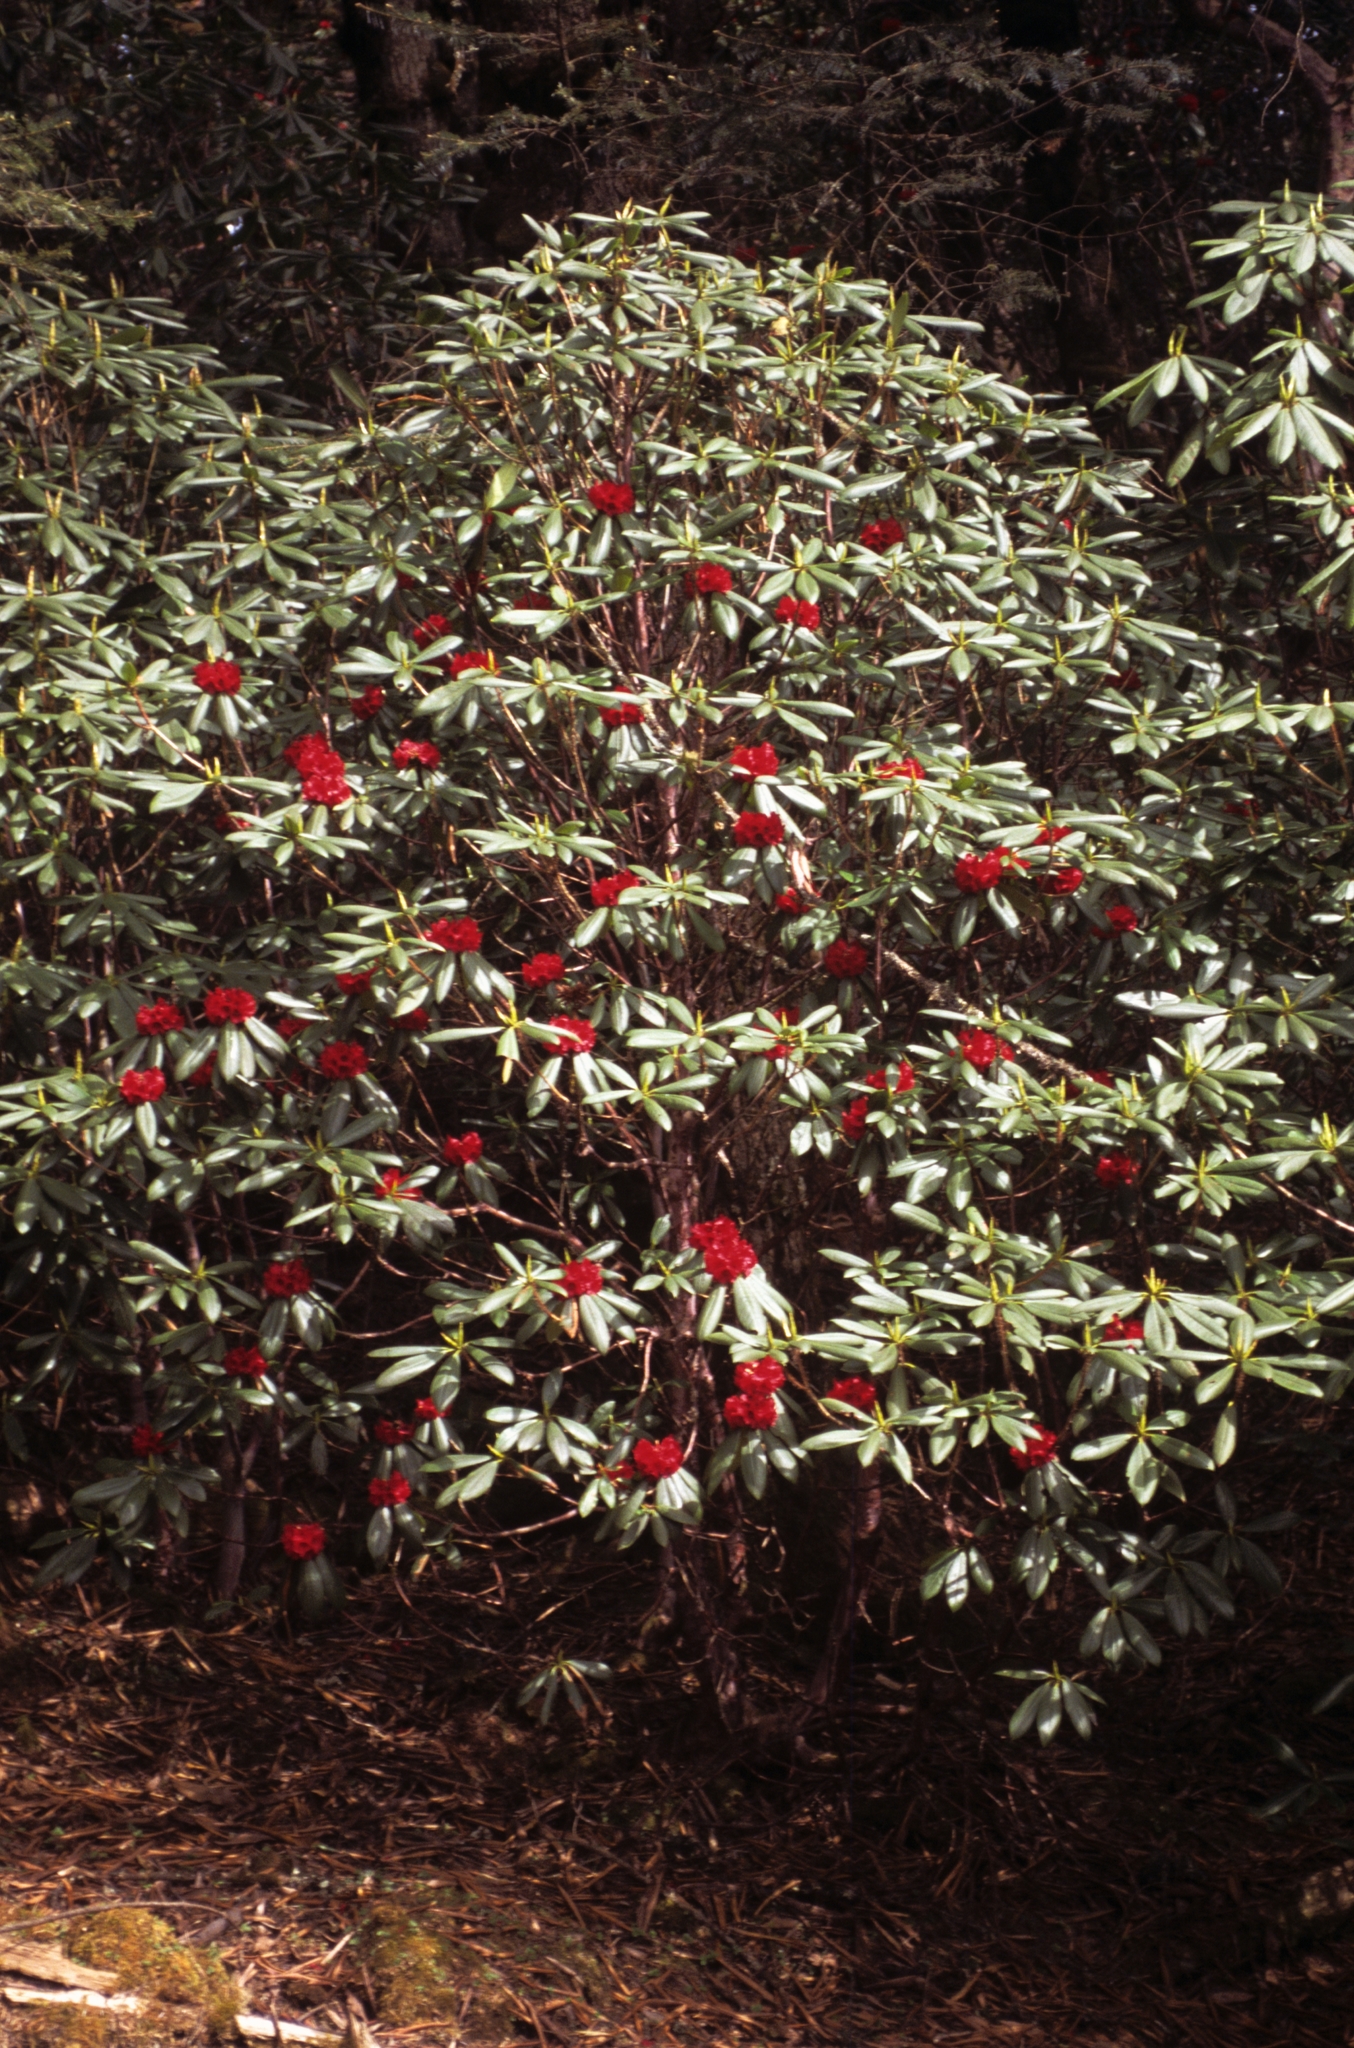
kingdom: Plantae
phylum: Tracheophyta
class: Magnoliopsida
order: Ericales
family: Ericaceae
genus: Rhododendron
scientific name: Rhododendron arboreum
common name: Tree rhododendron
